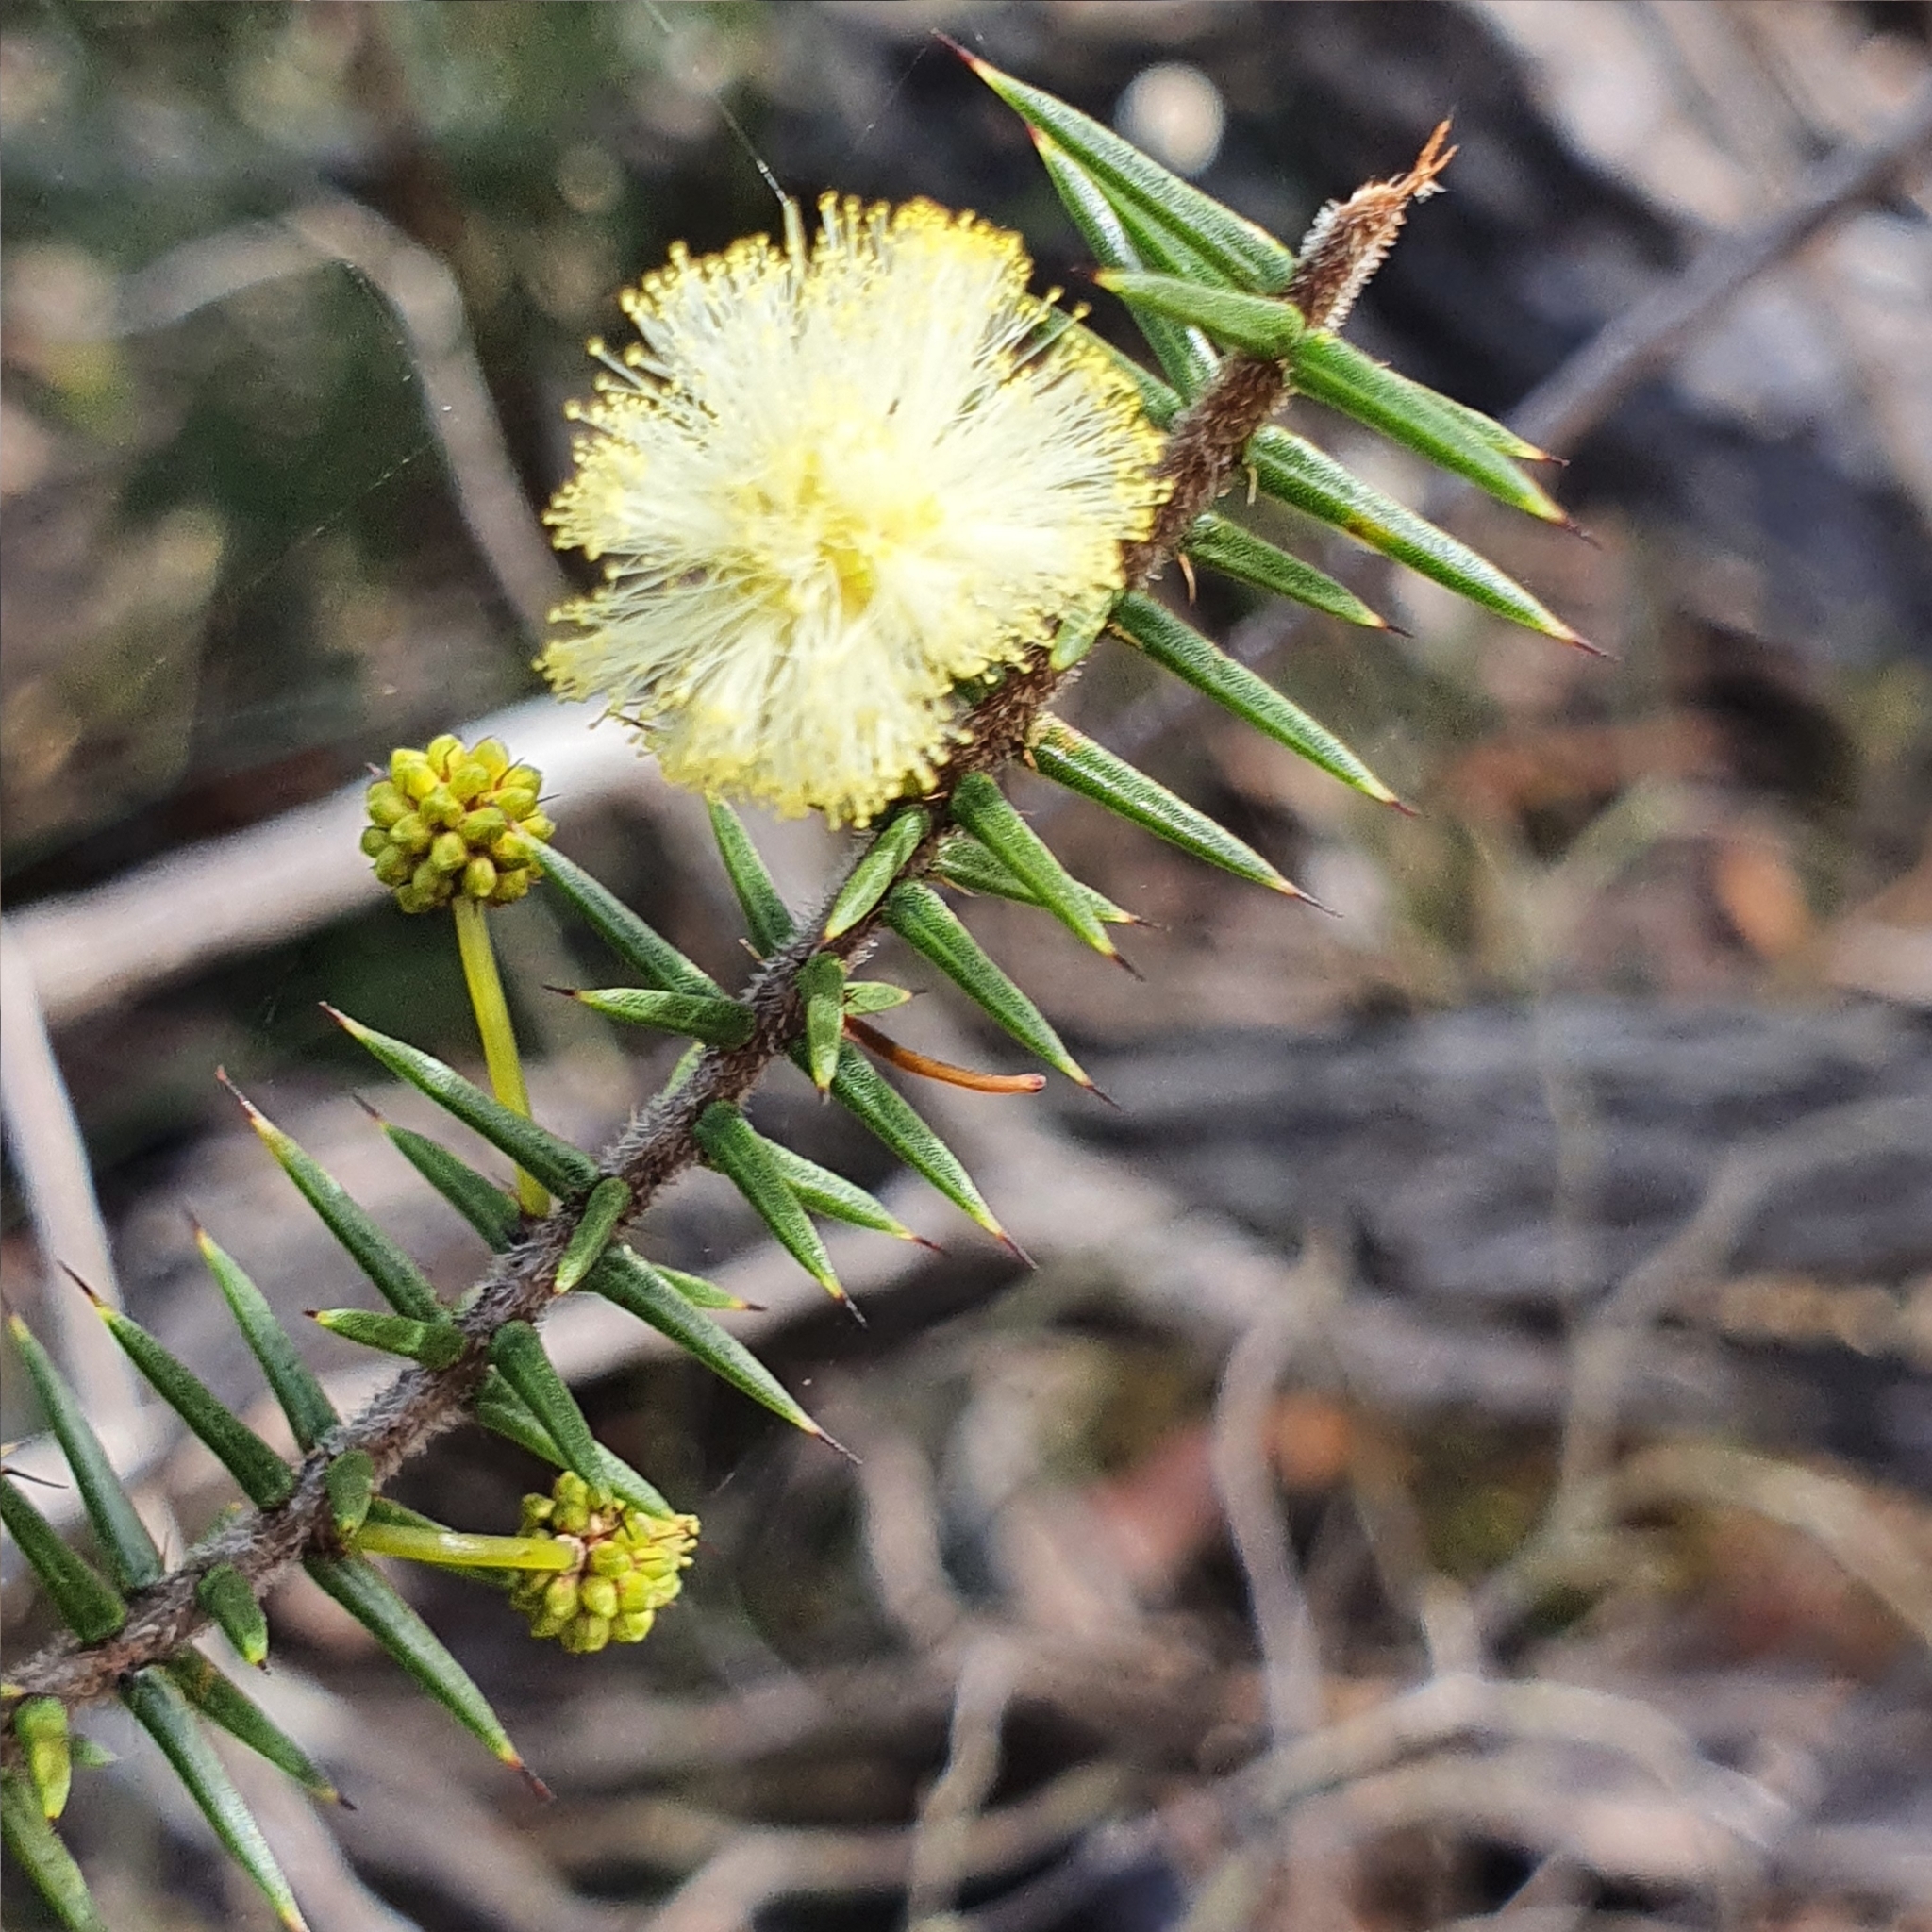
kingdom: Plantae
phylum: Tracheophyta
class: Magnoliopsida
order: Fabales
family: Fabaceae
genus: Acacia
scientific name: Acacia ulicifolia
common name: Juniper wattle
